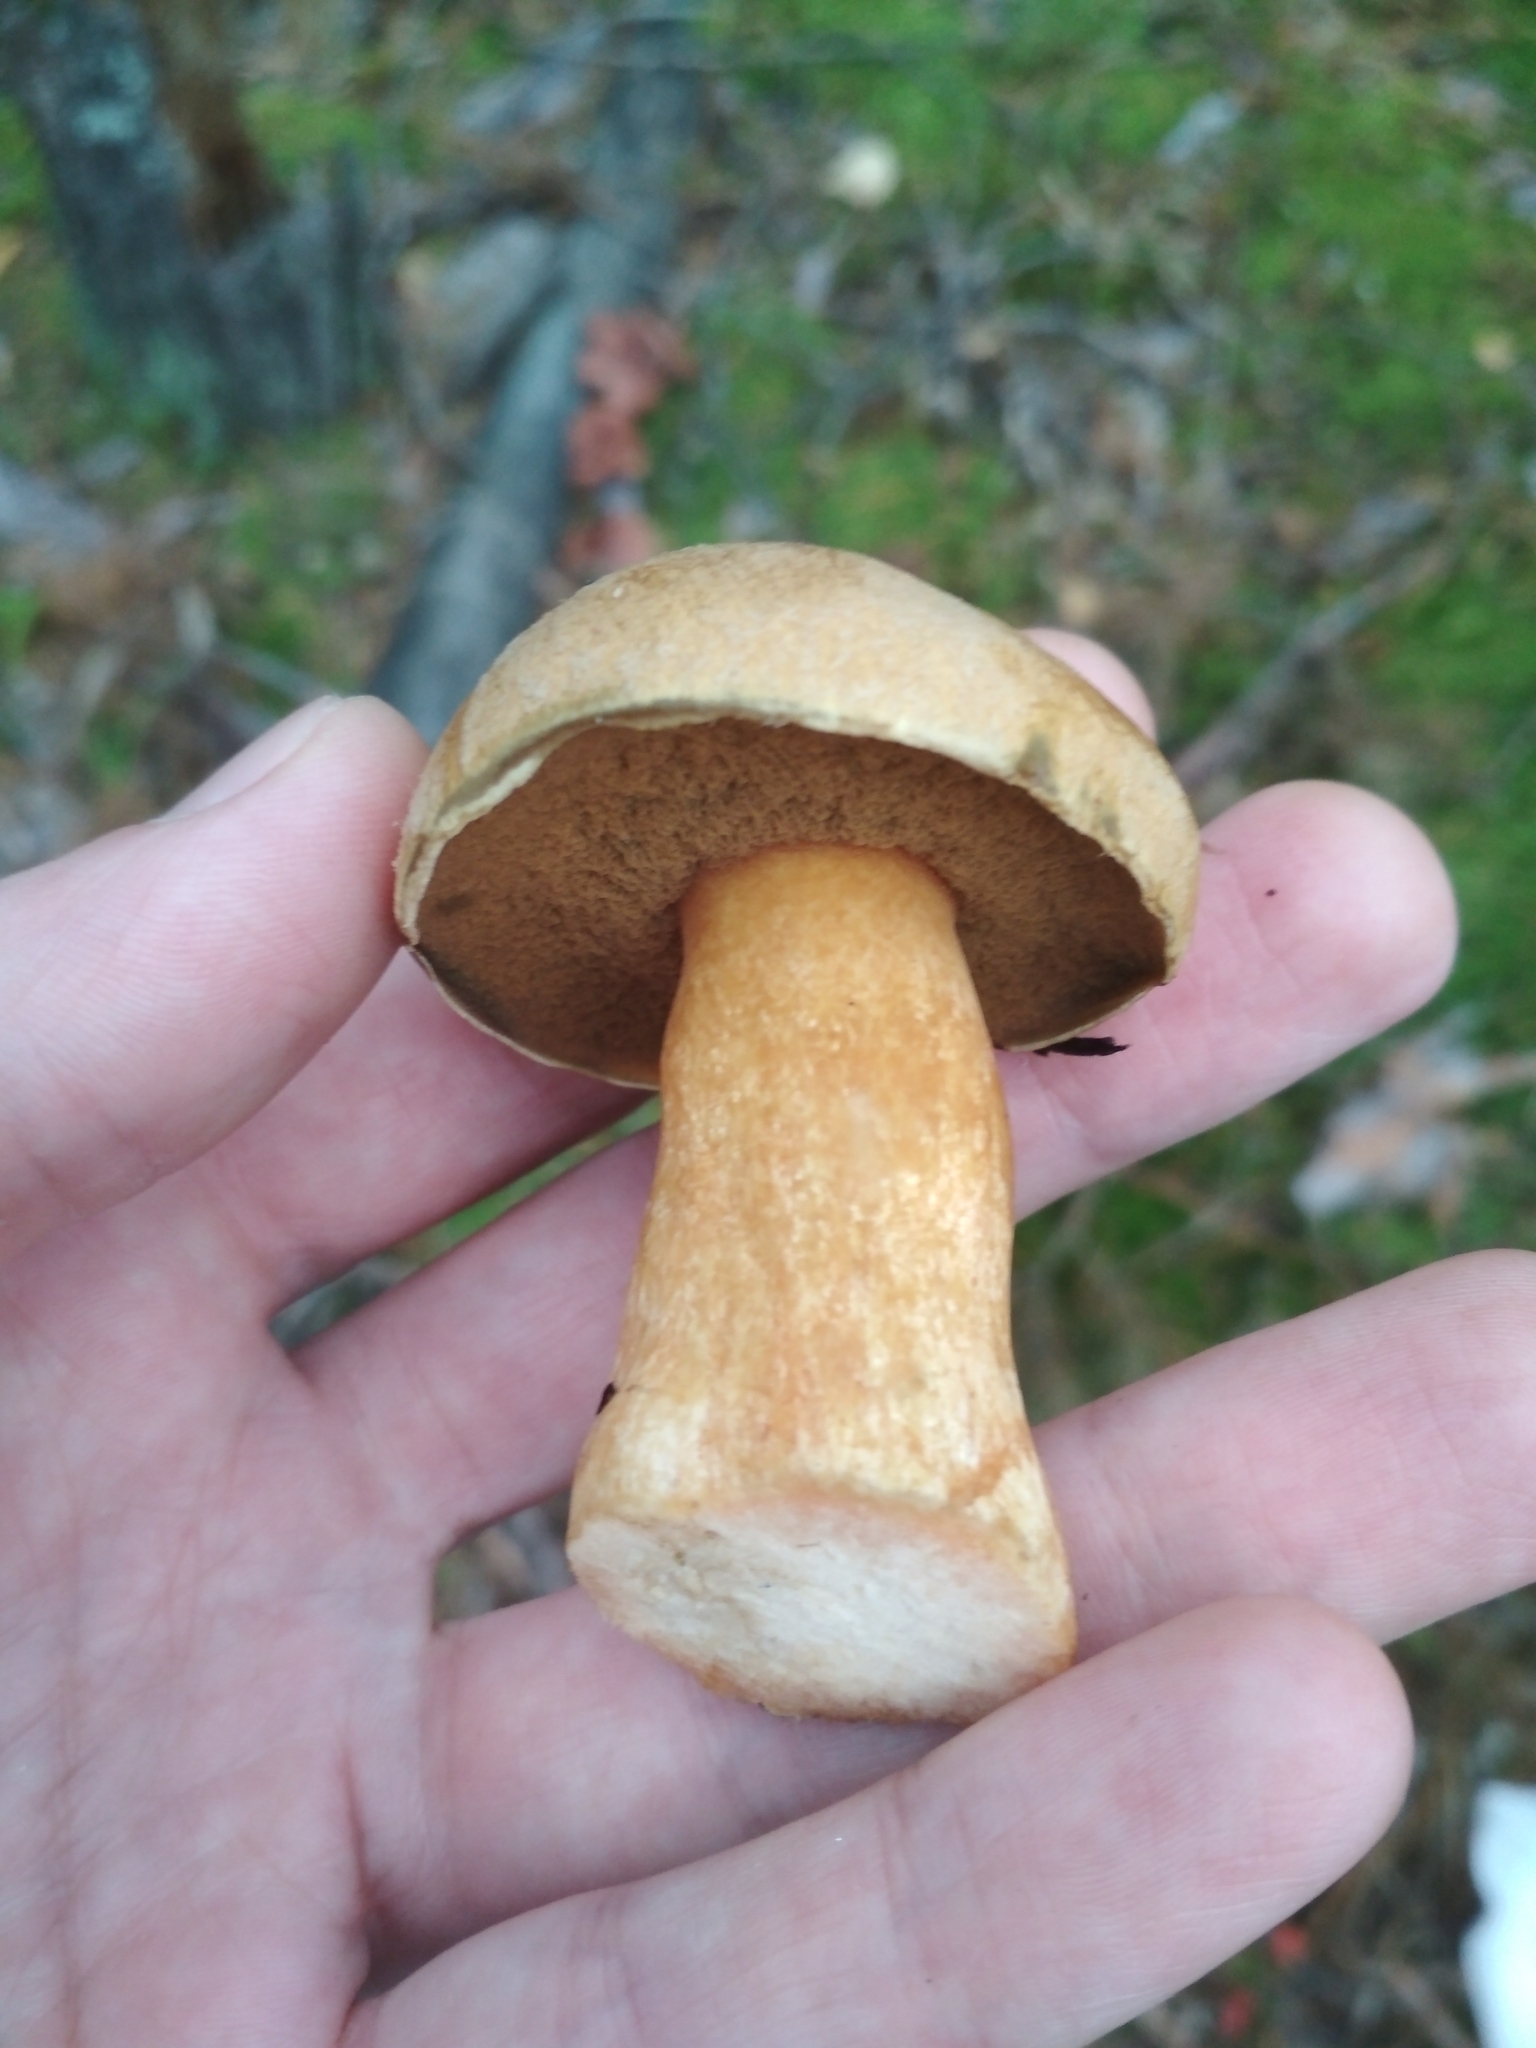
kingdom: Fungi
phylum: Basidiomycota
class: Agaricomycetes
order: Boletales
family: Suillaceae
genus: Suillus
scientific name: Suillus variegatus
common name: Velvet bolete
